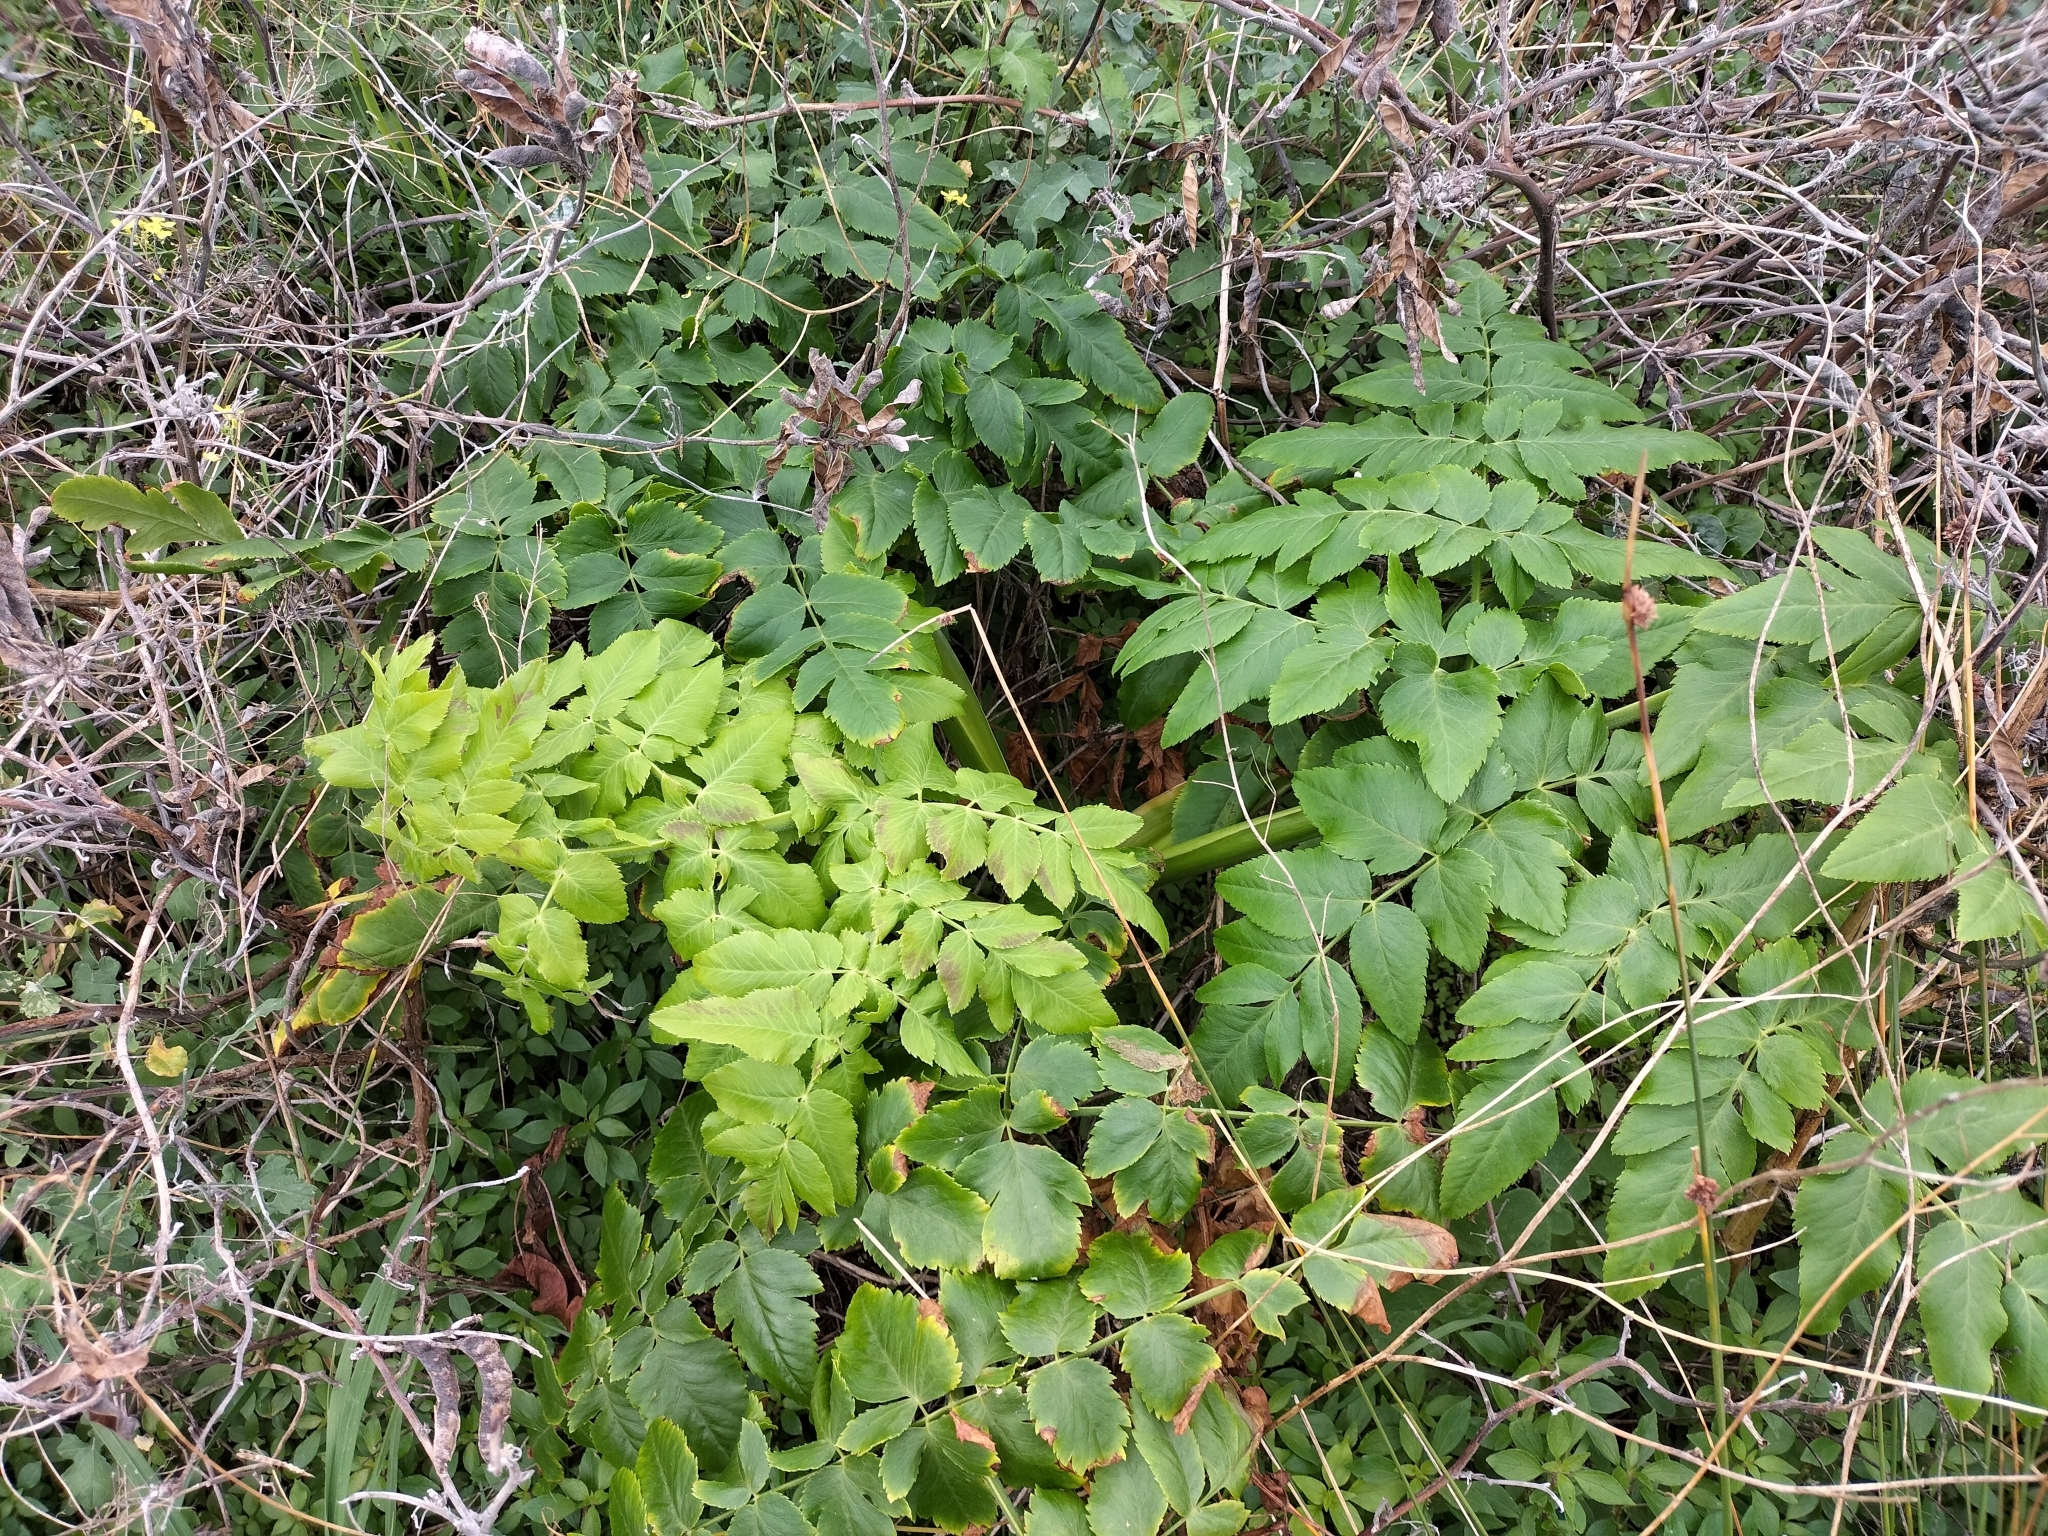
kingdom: Plantae
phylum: Tracheophyta
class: Magnoliopsida
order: Apiales
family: Apiaceae
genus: Daucus
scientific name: Daucus decipiens
